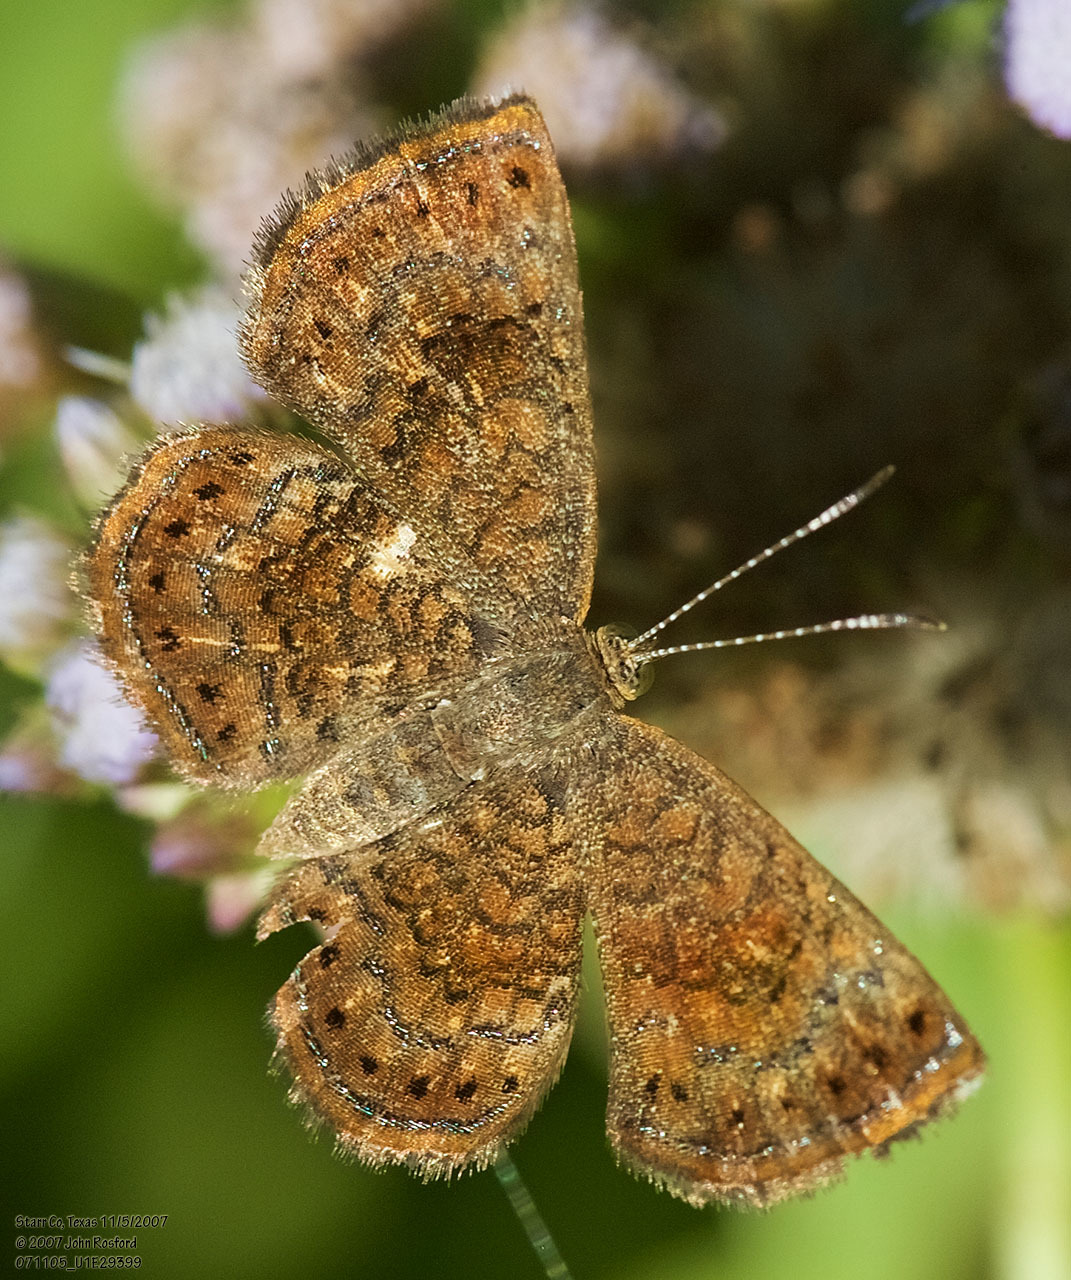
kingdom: Animalia
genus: Calephelis
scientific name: Calephelis perditalis
